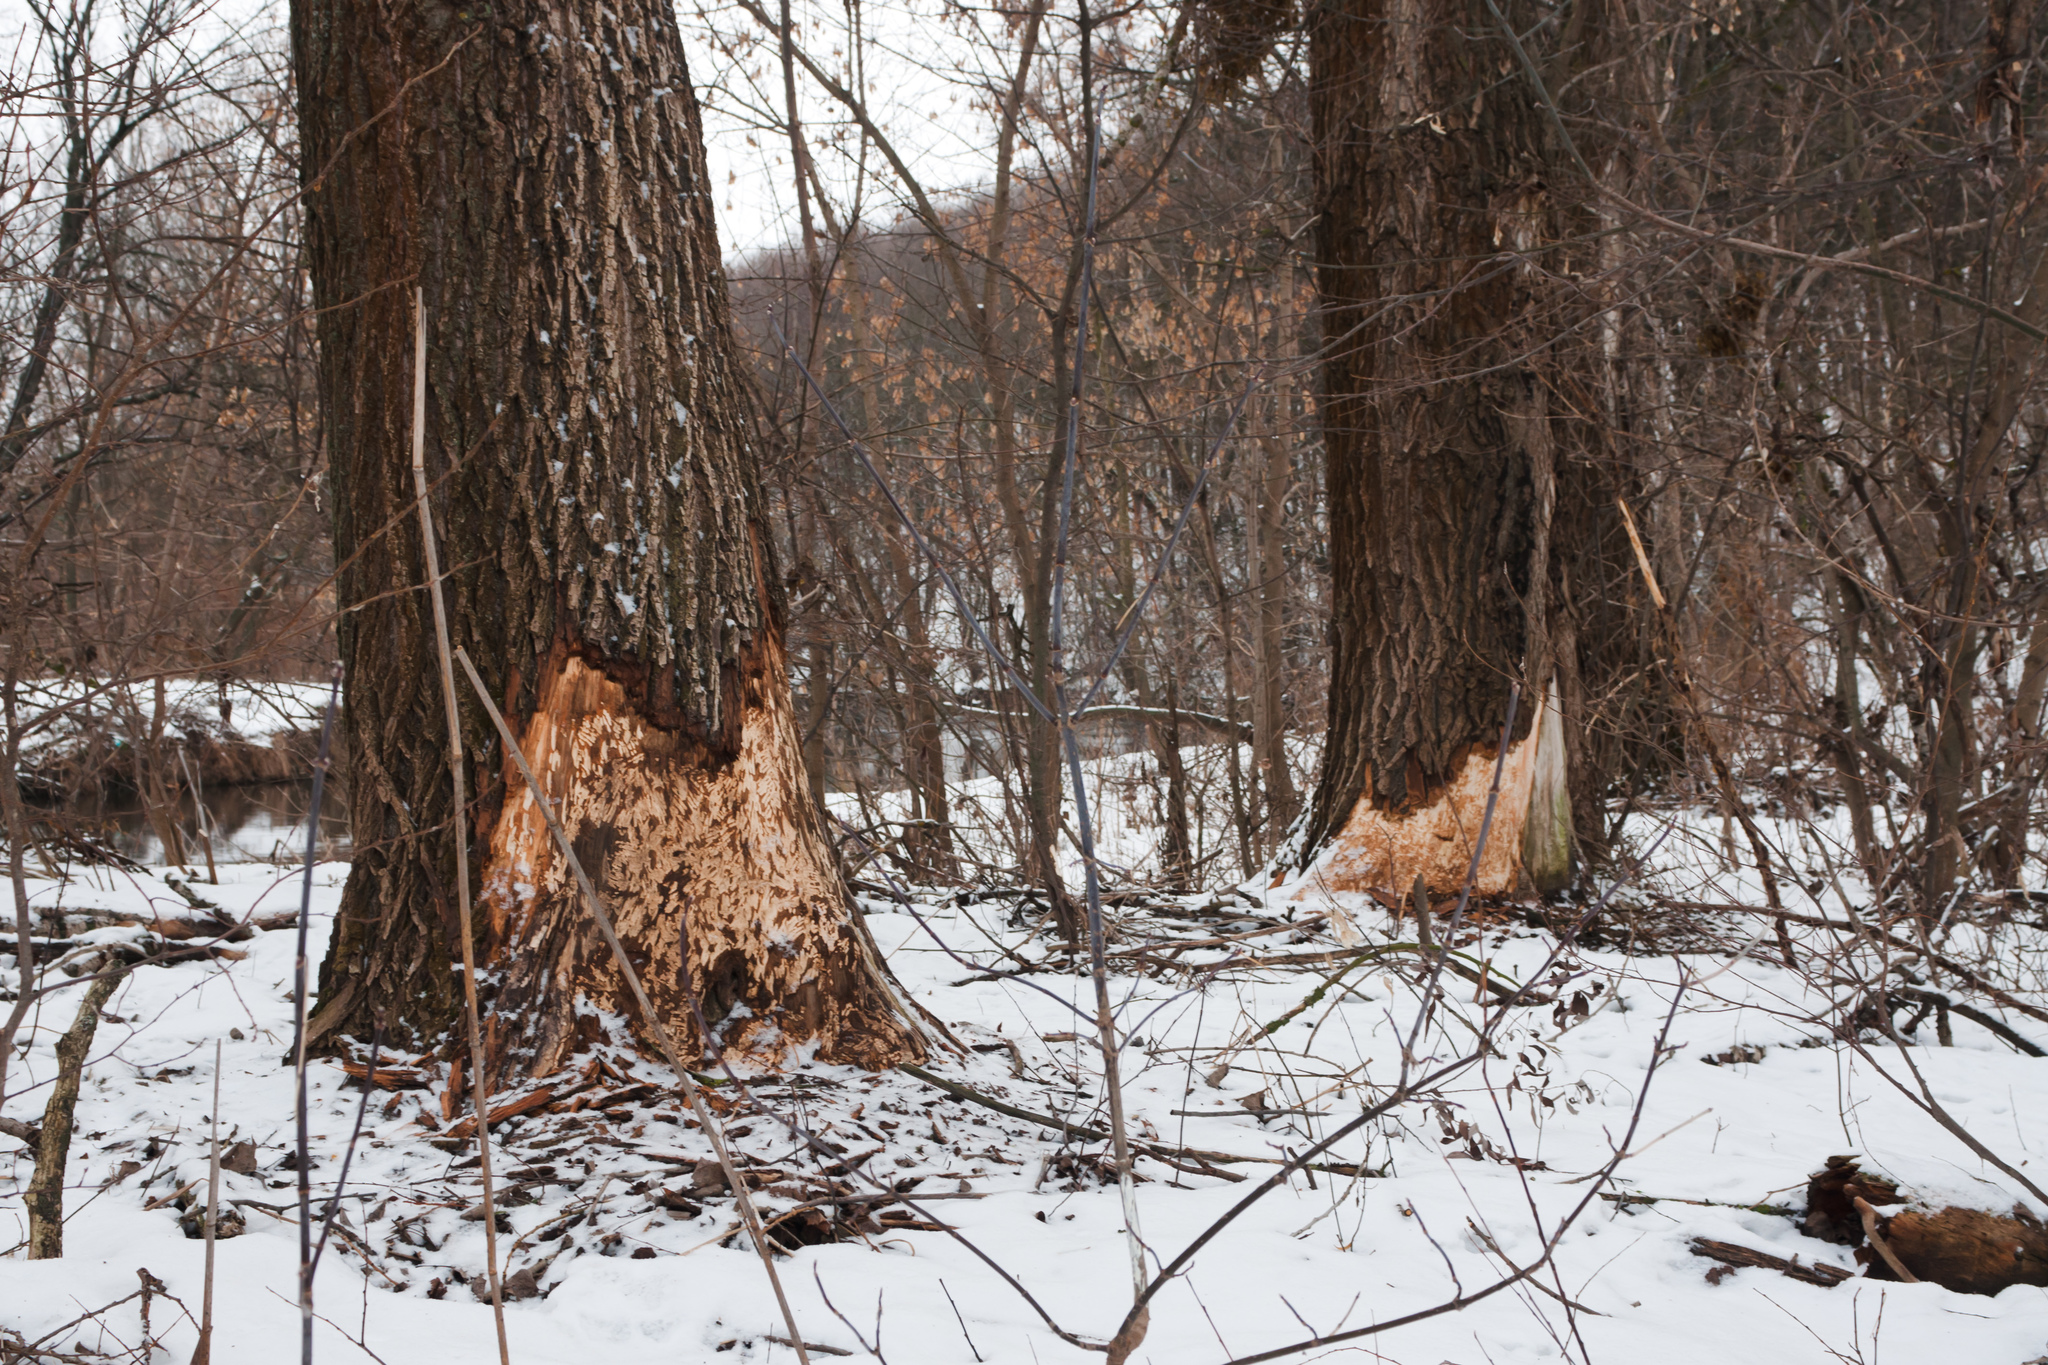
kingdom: Animalia
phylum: Chordata
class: Mammalia
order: Rodentia
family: Castoridae
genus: Castor
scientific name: Castor fiber
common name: Eurasian beaver
